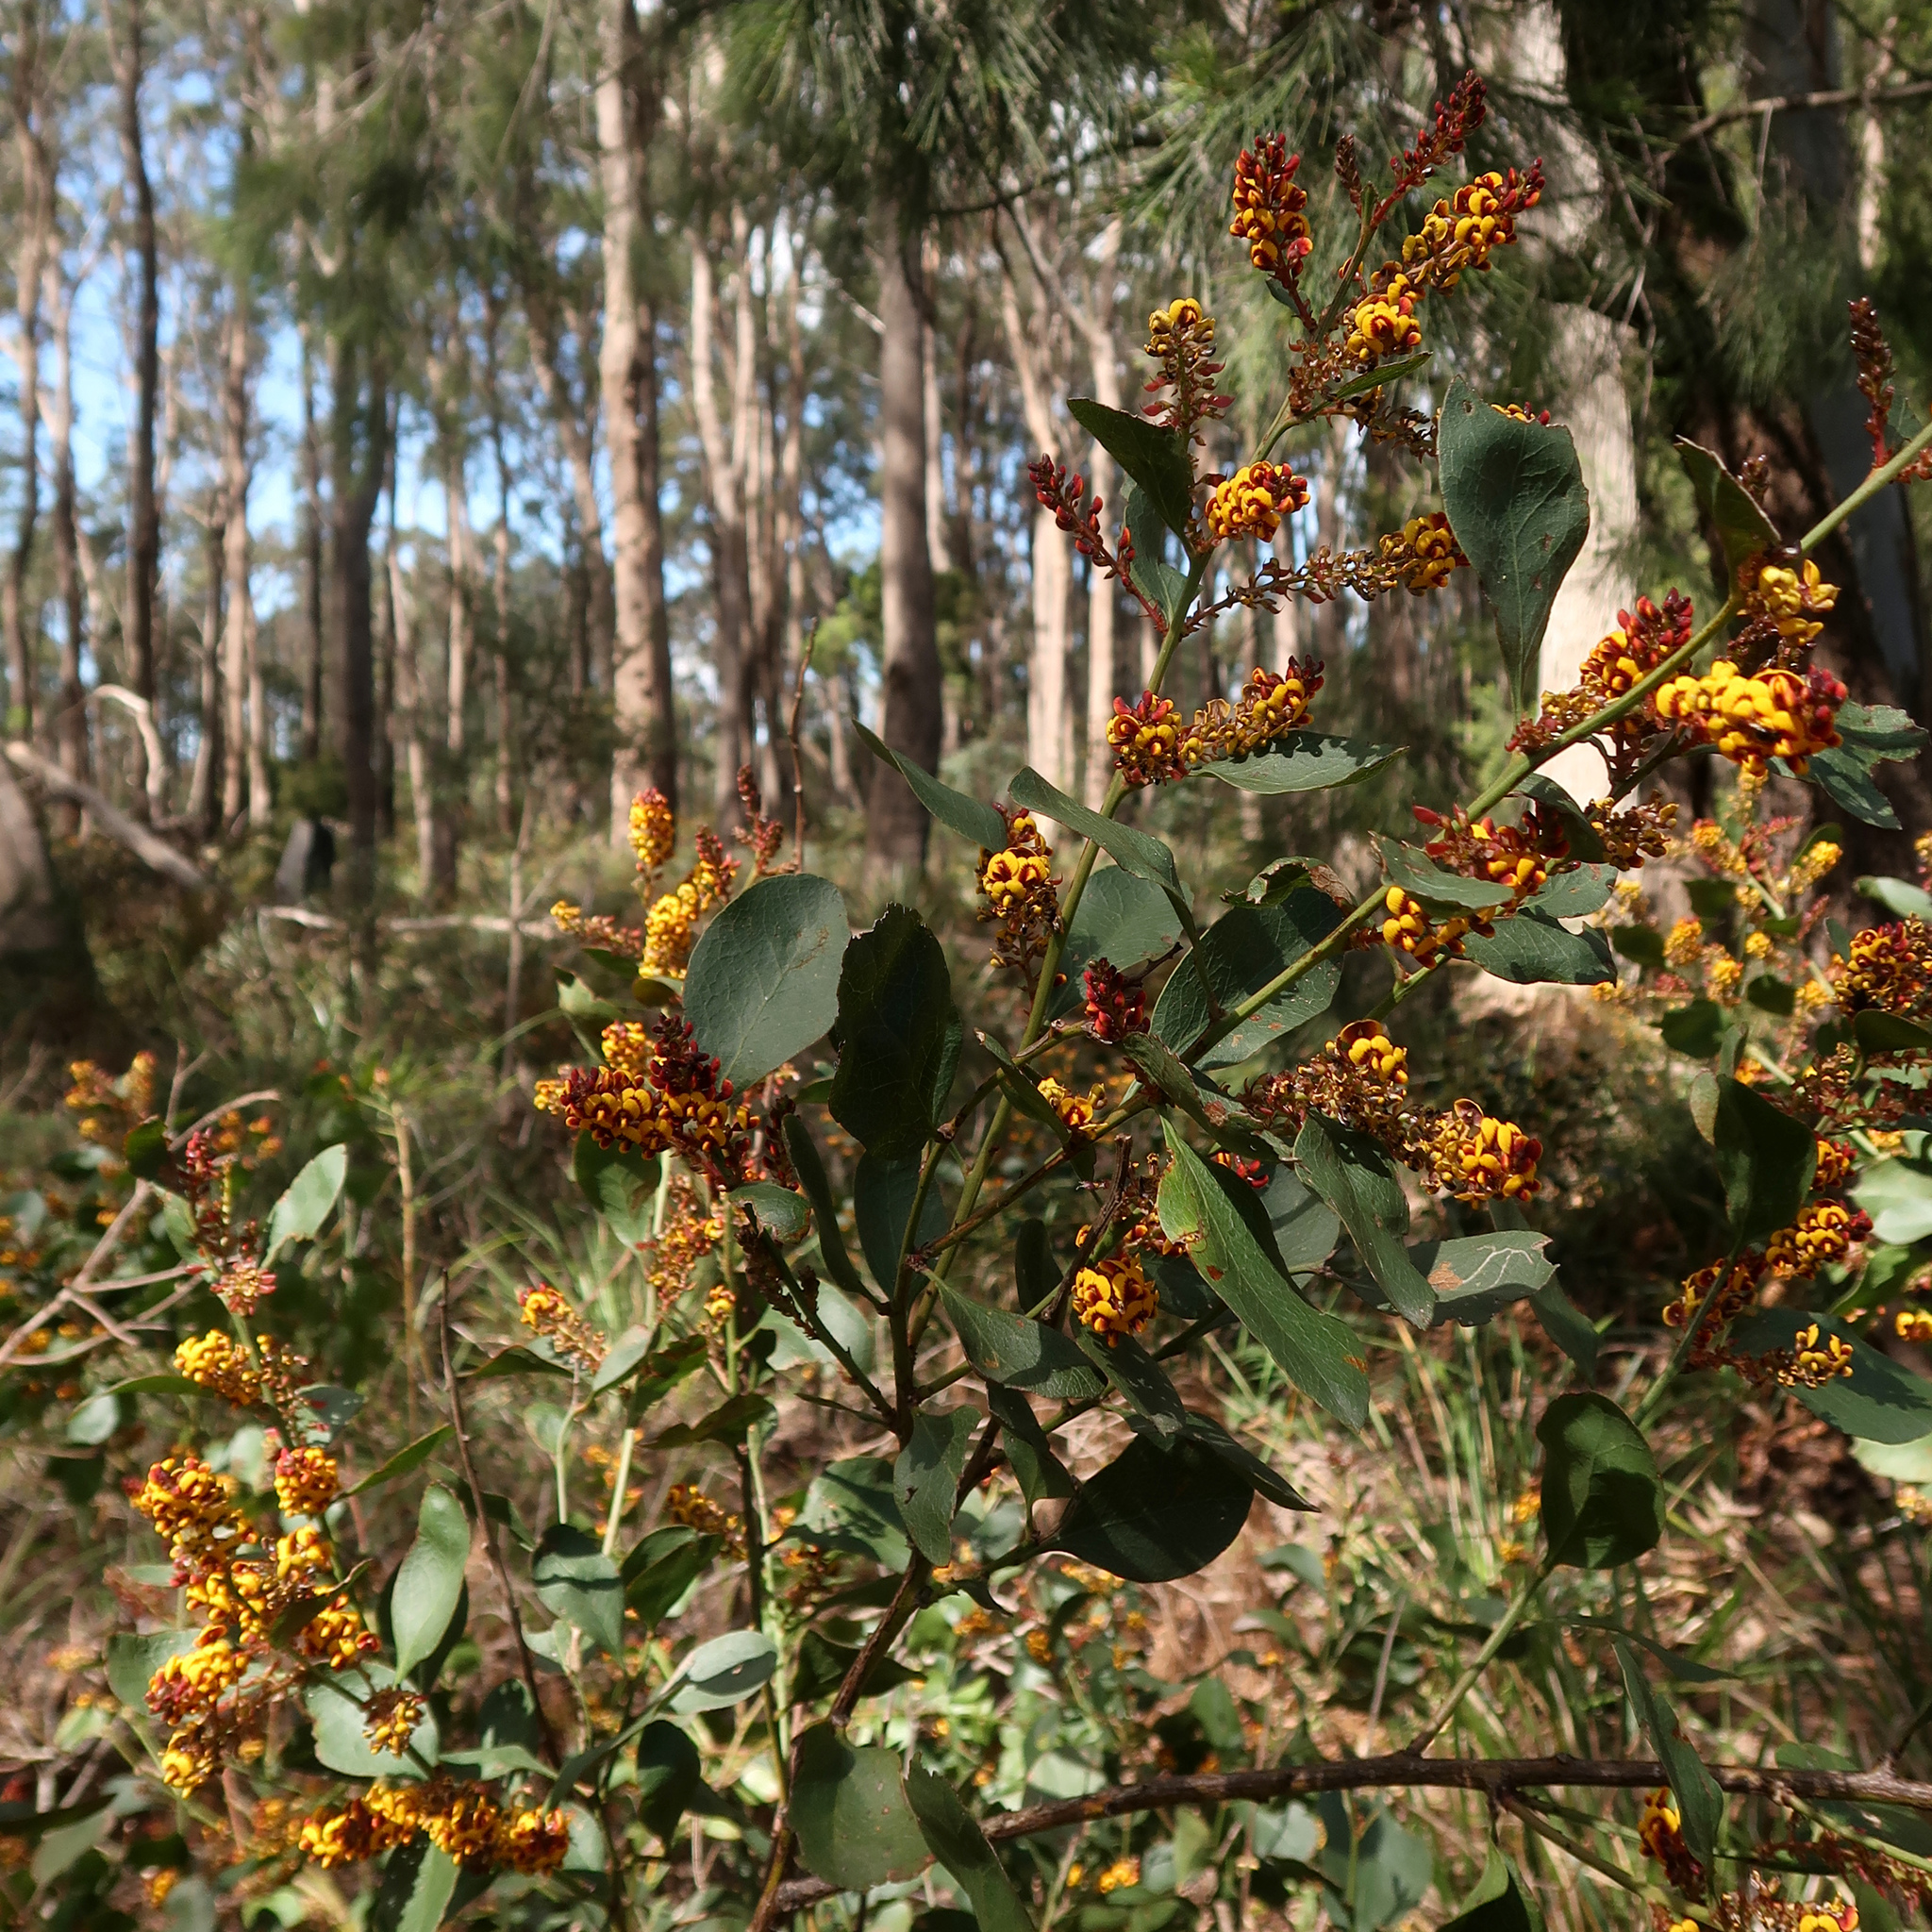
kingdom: Plantae
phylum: Tracheophyta
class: Magnoliopsida
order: Fabales
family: Fabaceae
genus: Daviesia
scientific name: Daviesia latifolia
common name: Hop bitter-pea
